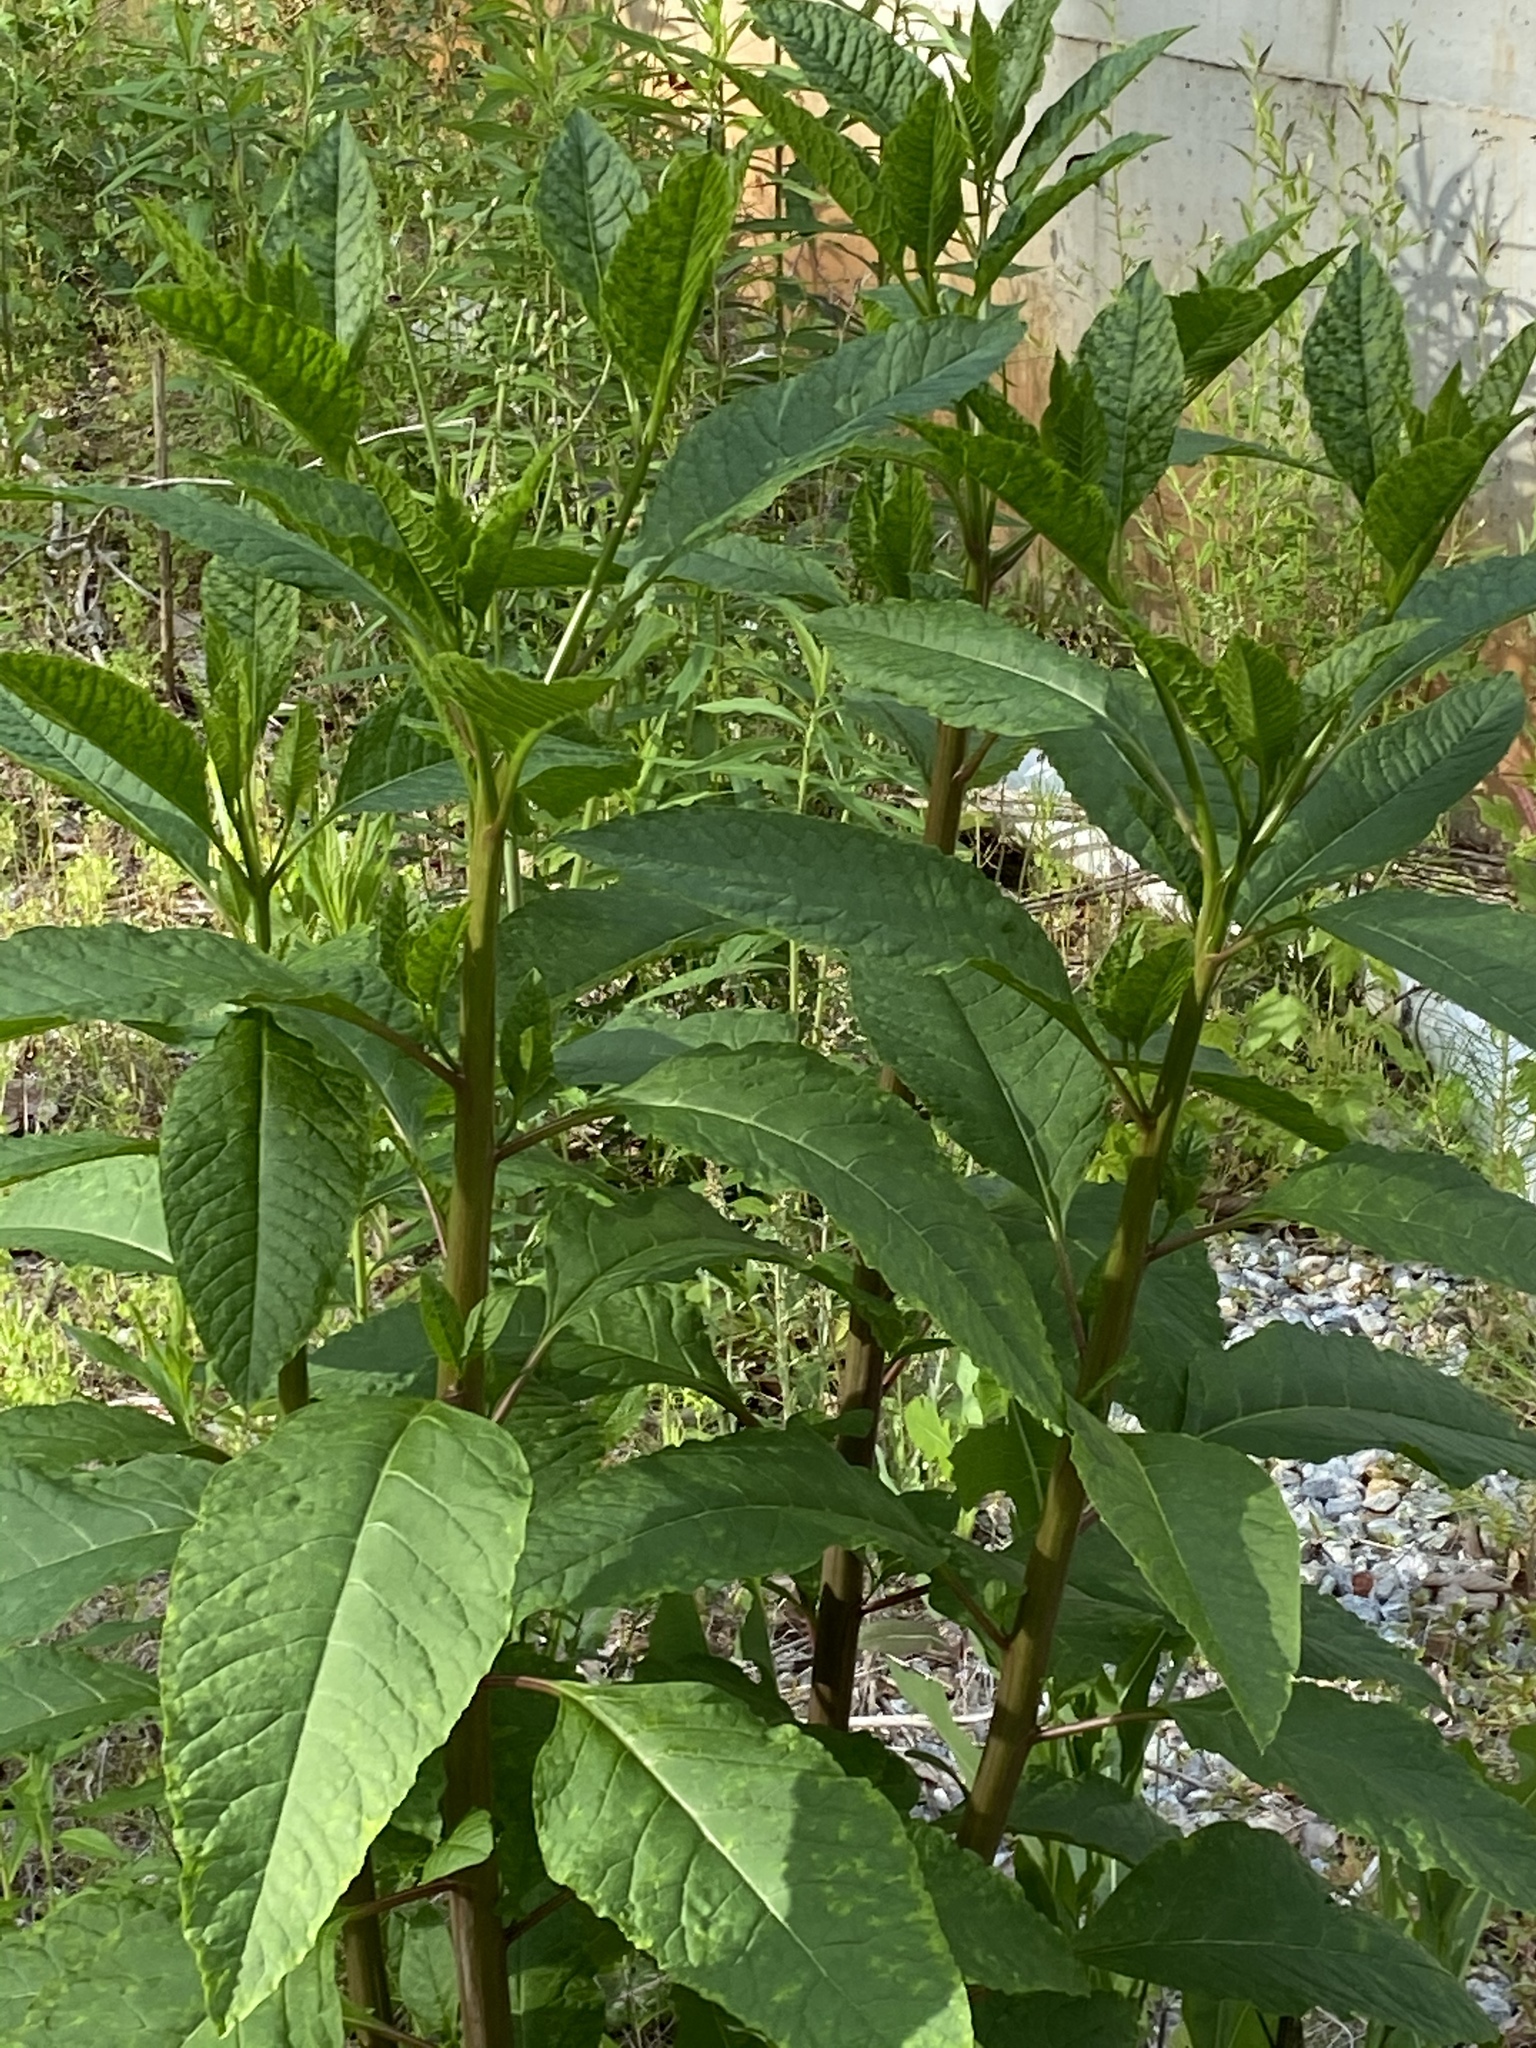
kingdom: Viruses
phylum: Pisuviricota
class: Stelpaviricetes
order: Patatavirales
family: Potyviridae
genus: Potyvirus
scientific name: Potyvirus Pokeweed mosaic virus
